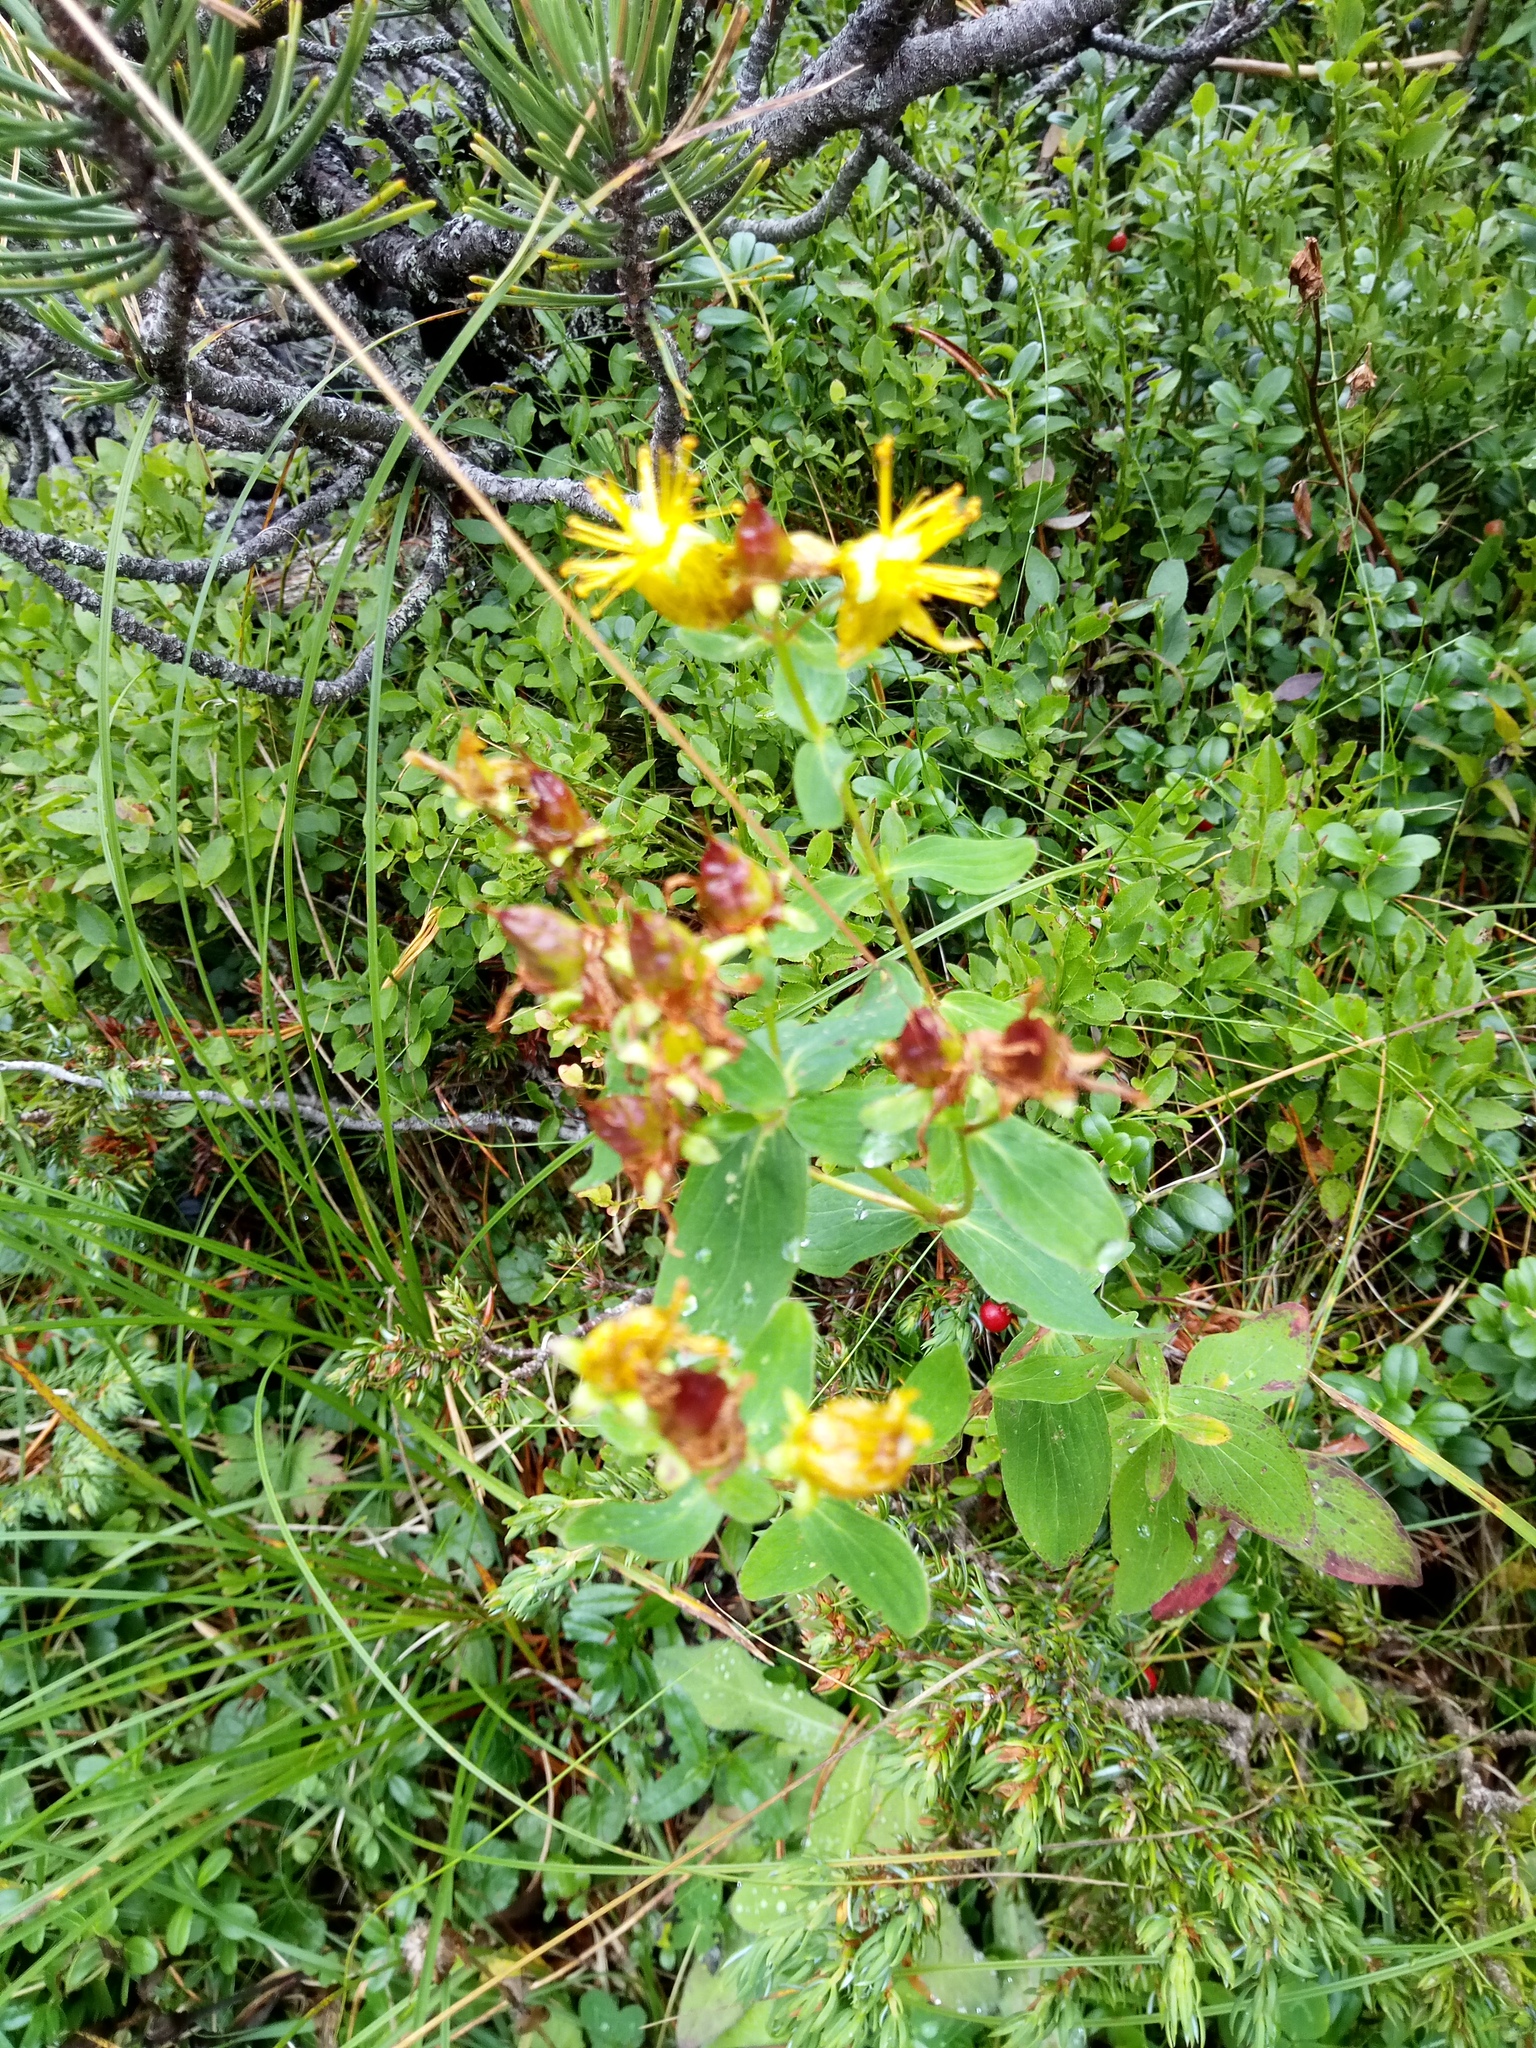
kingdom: Plantae
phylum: Tracheophyta
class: Magnoliopsida
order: Malpighiales
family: Hypericaceae
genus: Hypericum
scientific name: Hypericum maculatum
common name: Imperforate st. john's-wort
